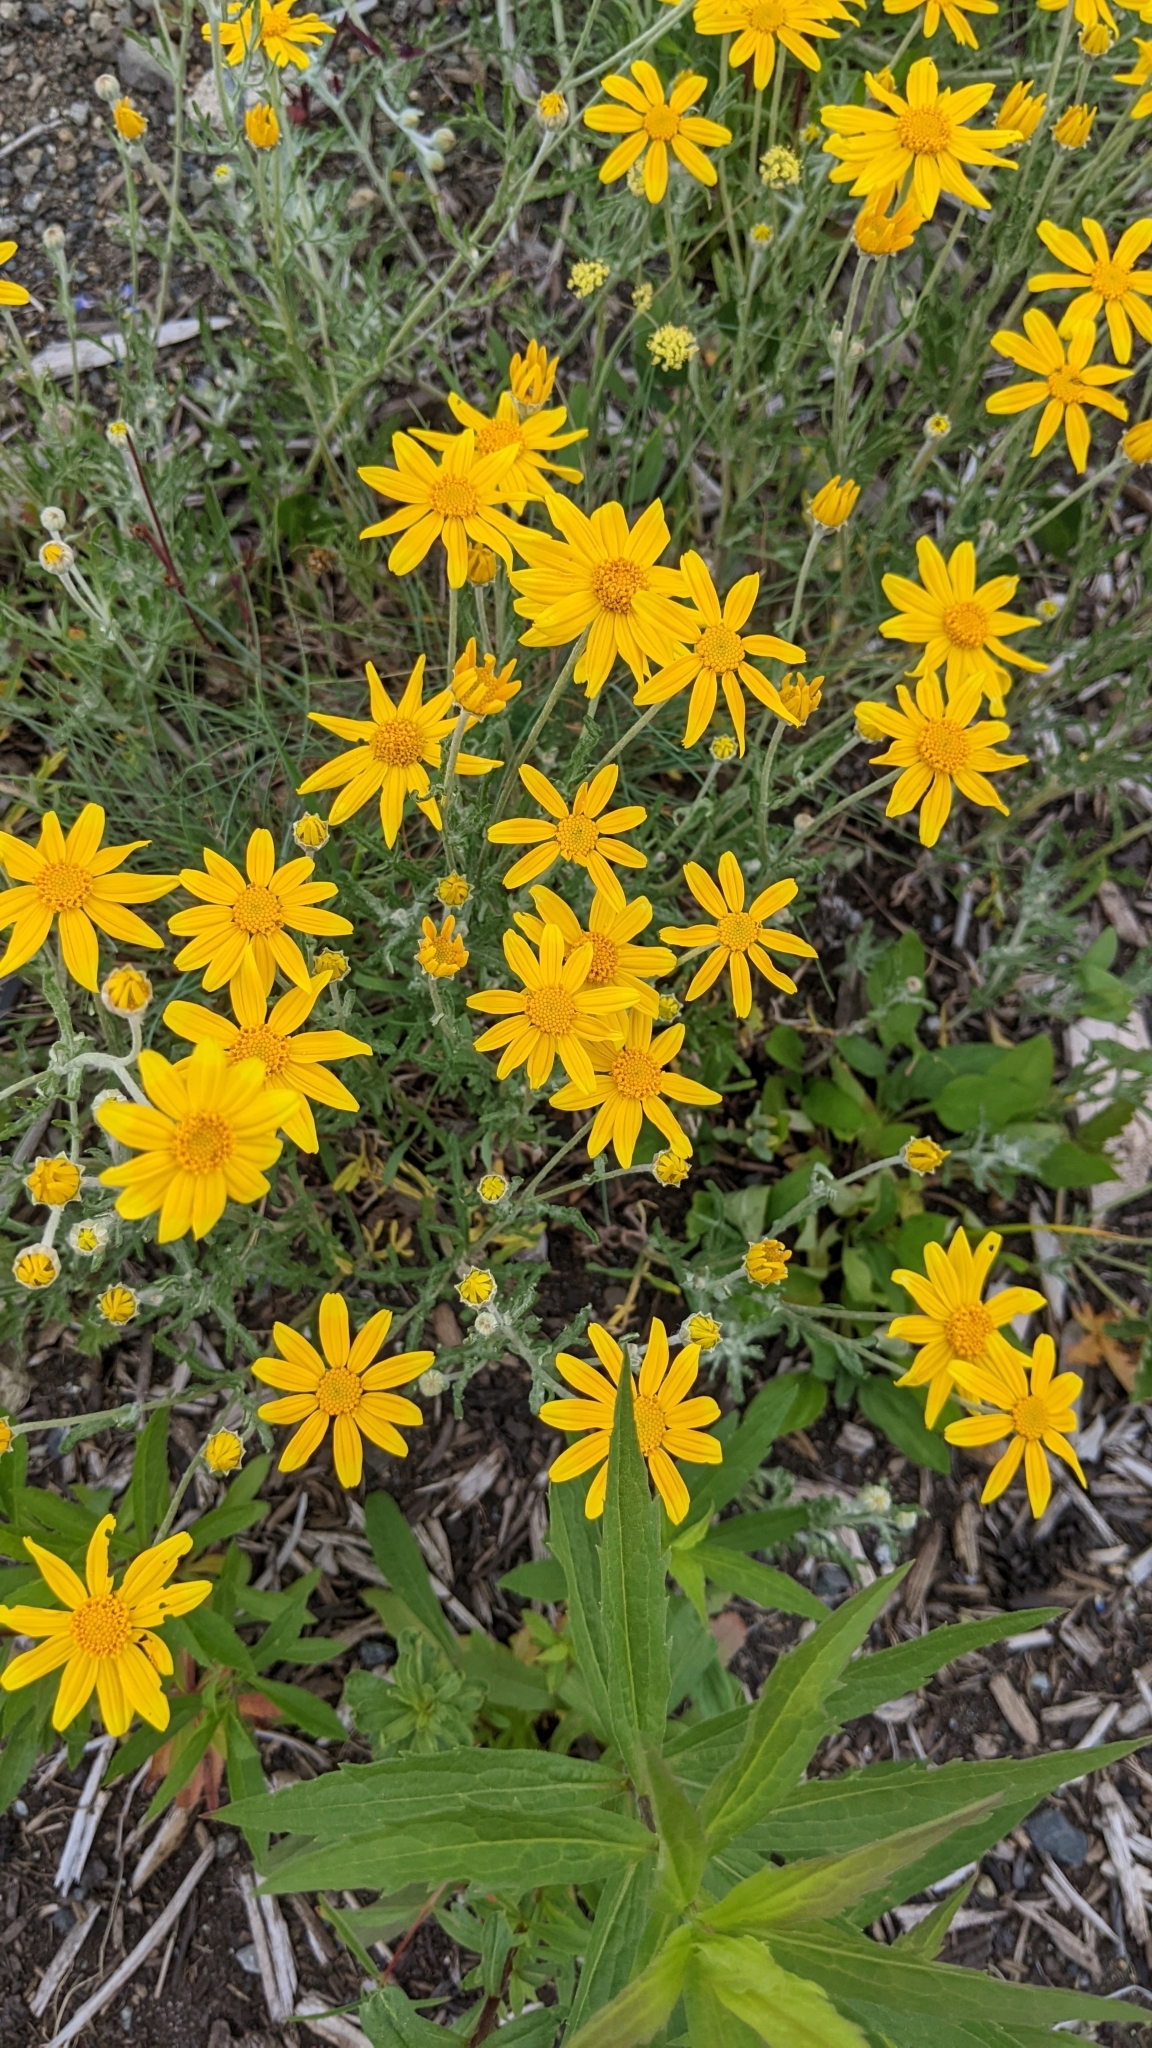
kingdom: Plantae
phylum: Tracheophyta
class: Magnoliopsida
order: Asterales
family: Asteraceae
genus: Eriophyllum
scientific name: Eriophyllum lanatum
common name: Common woolly-sunflower
